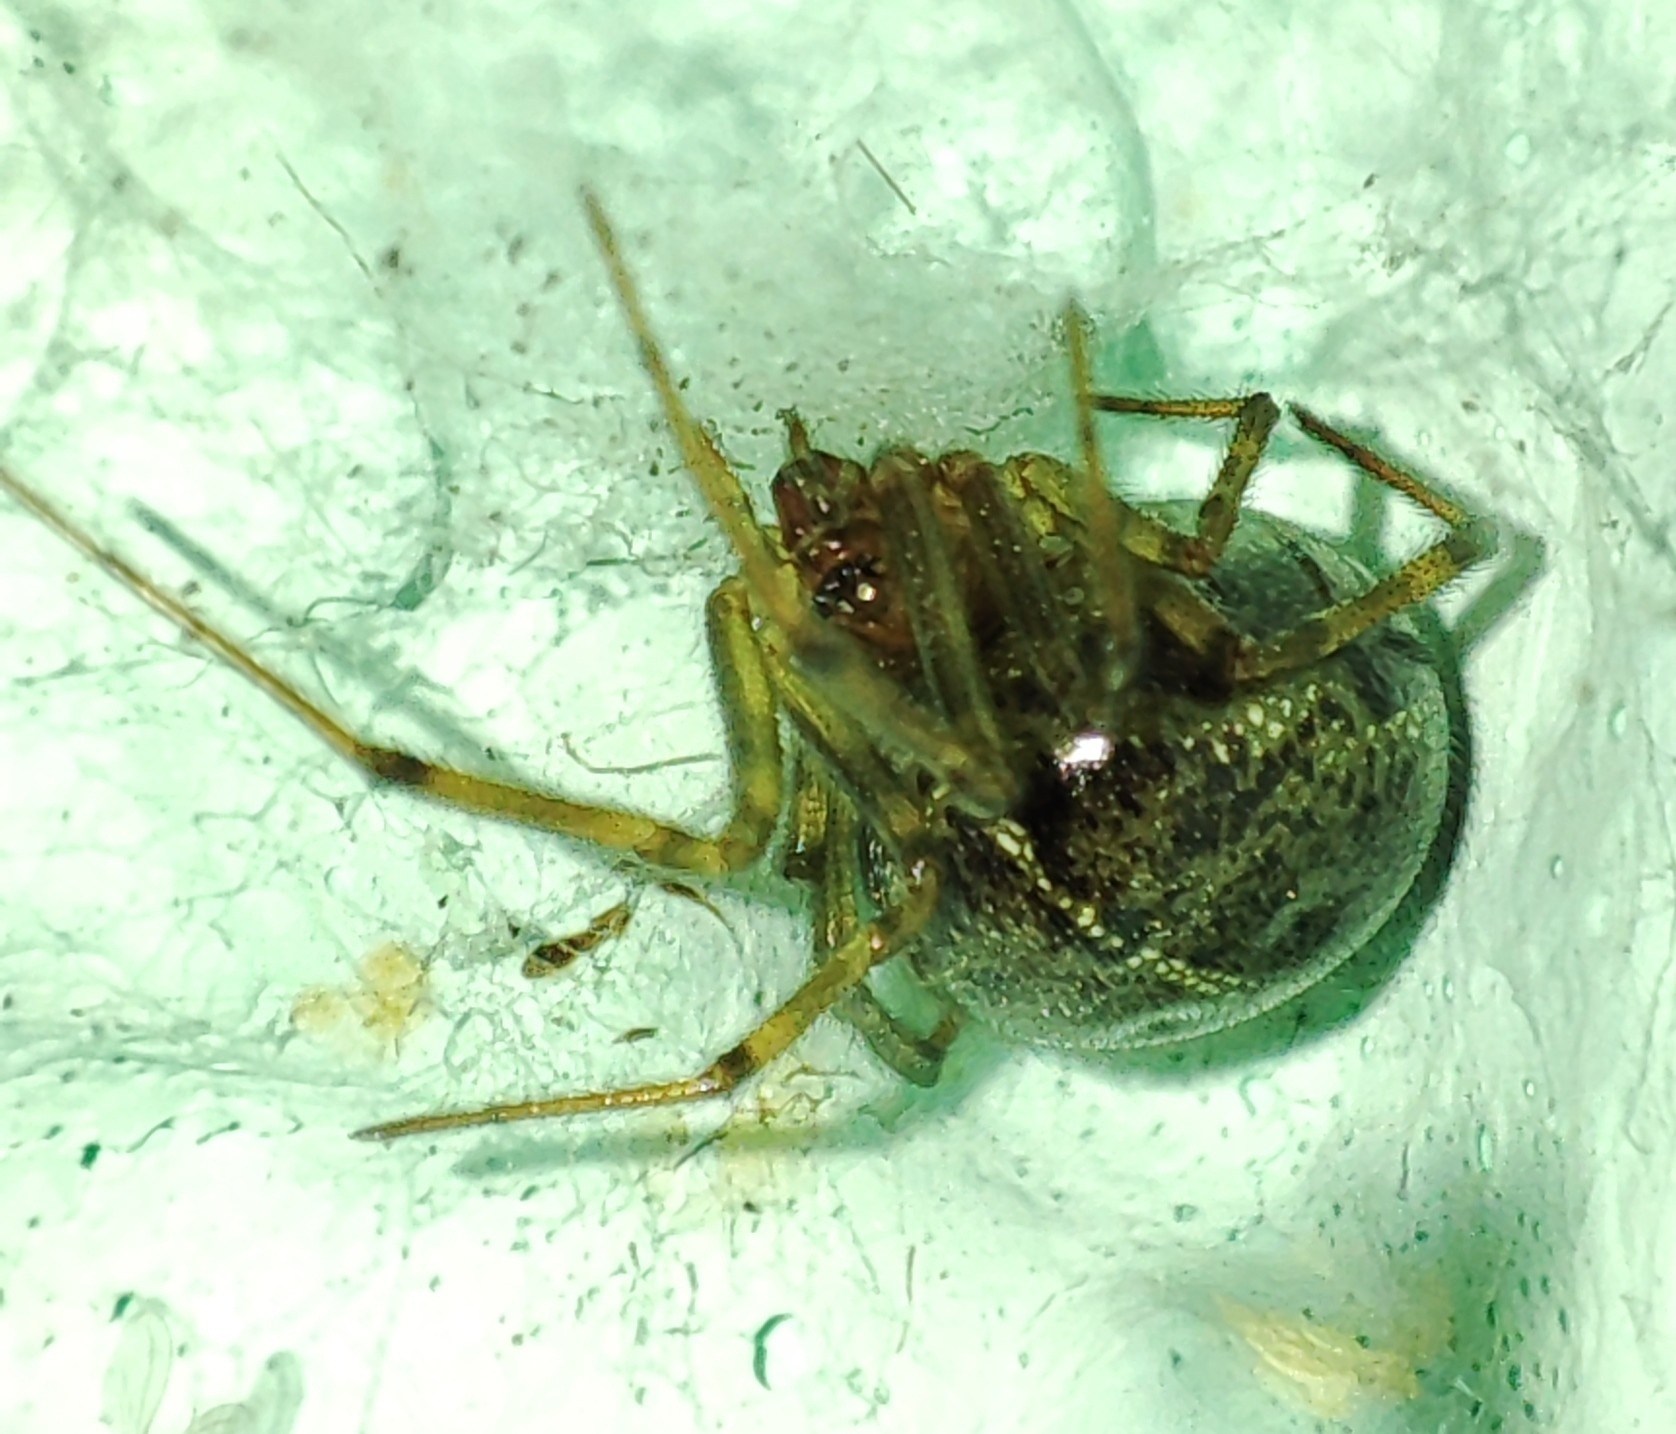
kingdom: Animalia
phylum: Arthropoda
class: Arachnida
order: Araneae
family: Theridiidae
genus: Steatoda
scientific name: Steatoda castanea
